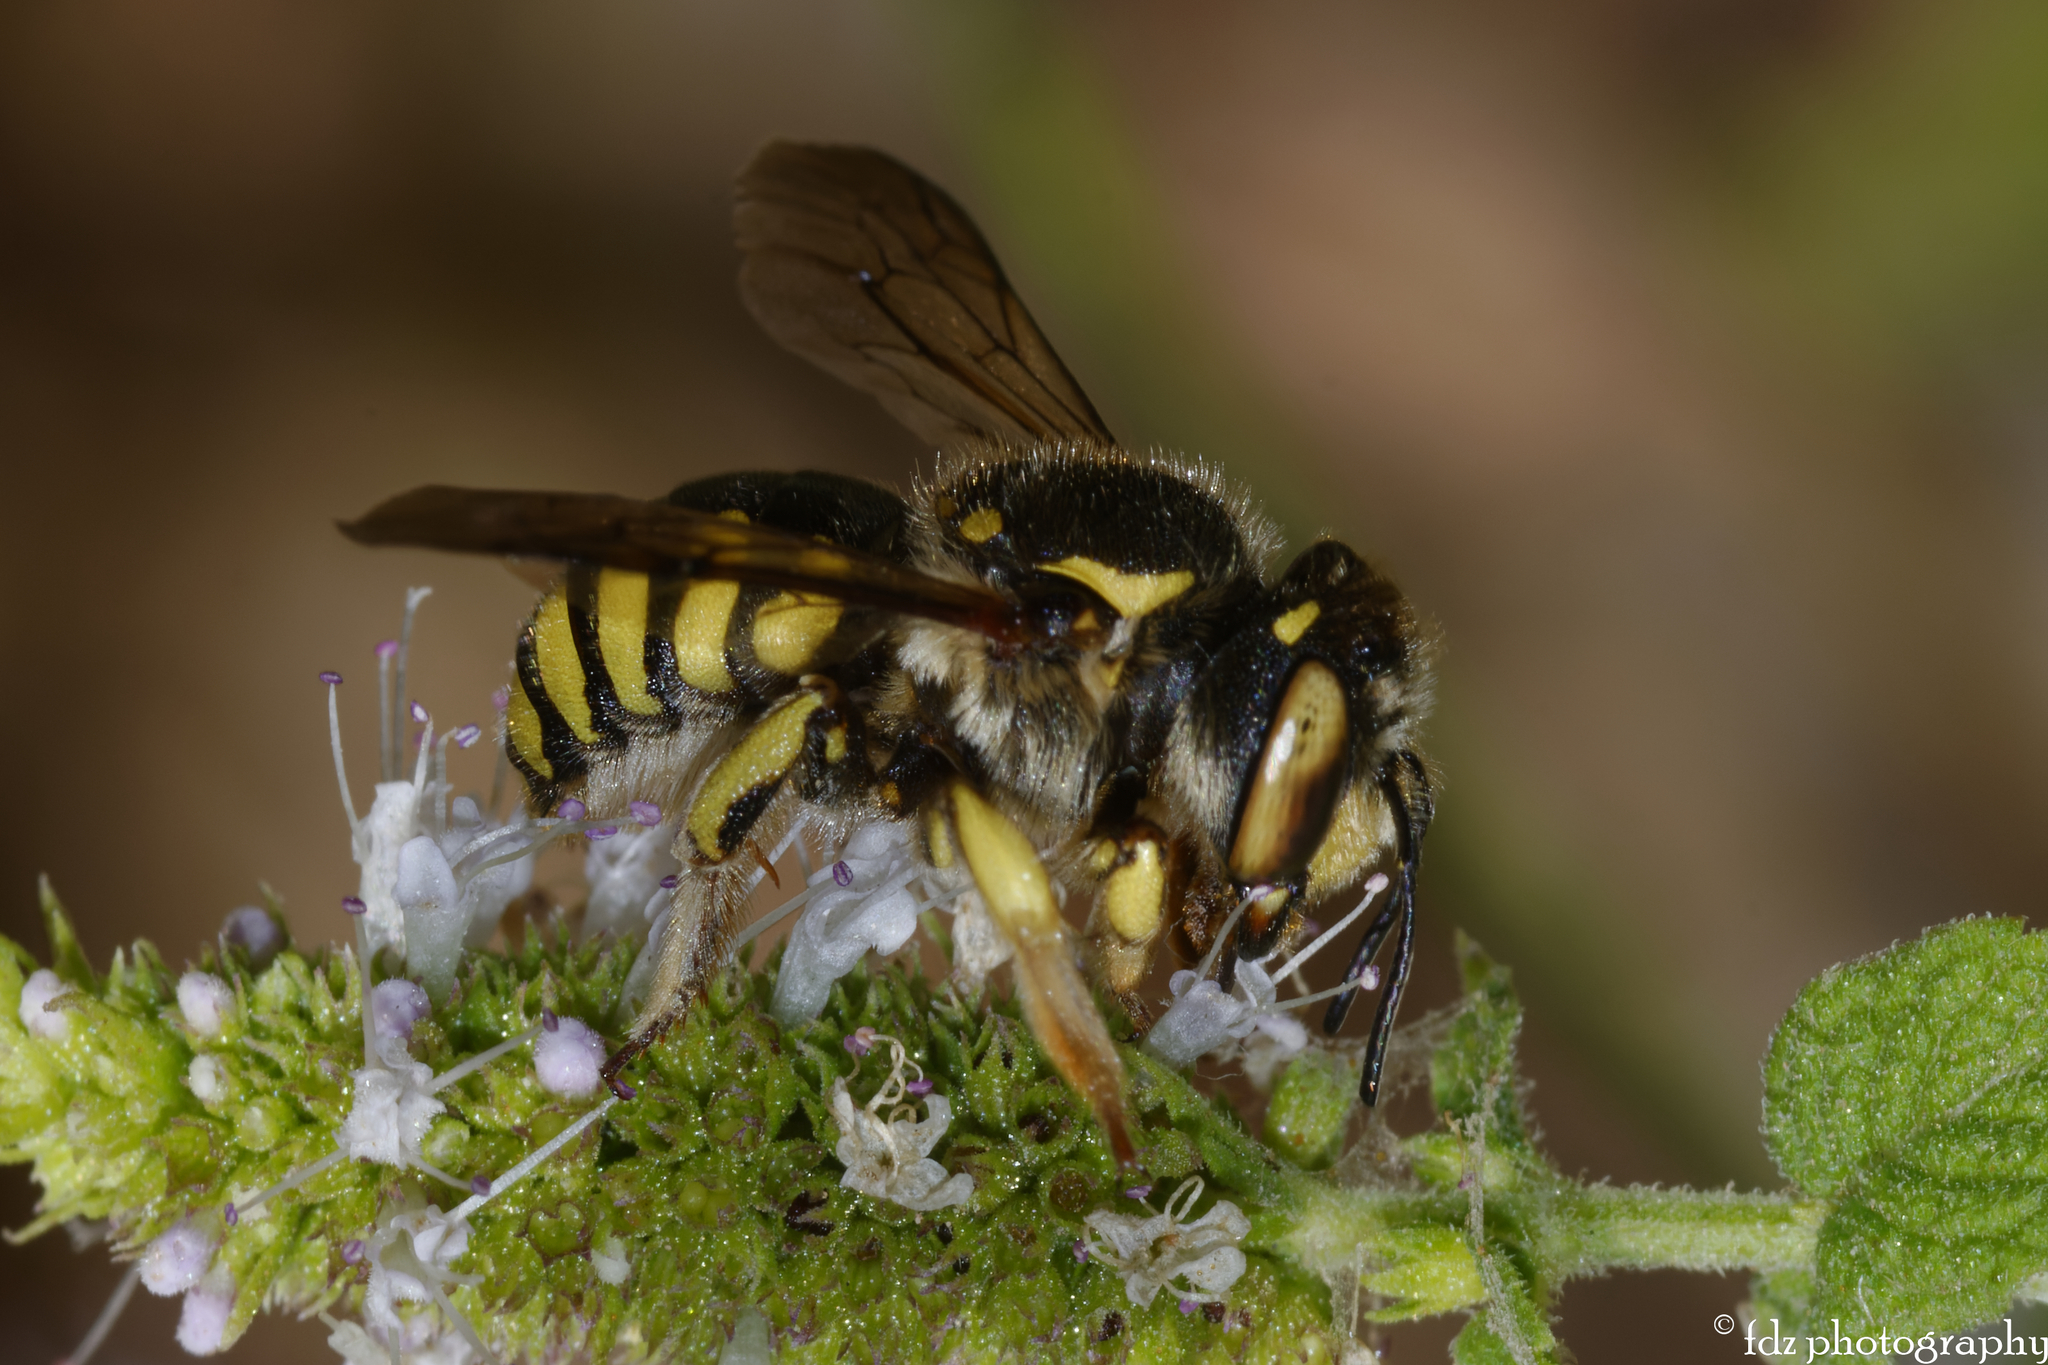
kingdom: Animalia
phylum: Arthropoda
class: Insecta
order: Hymenoptera
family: Megachilidae
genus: Anthidium
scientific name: Anthidium florentinum
